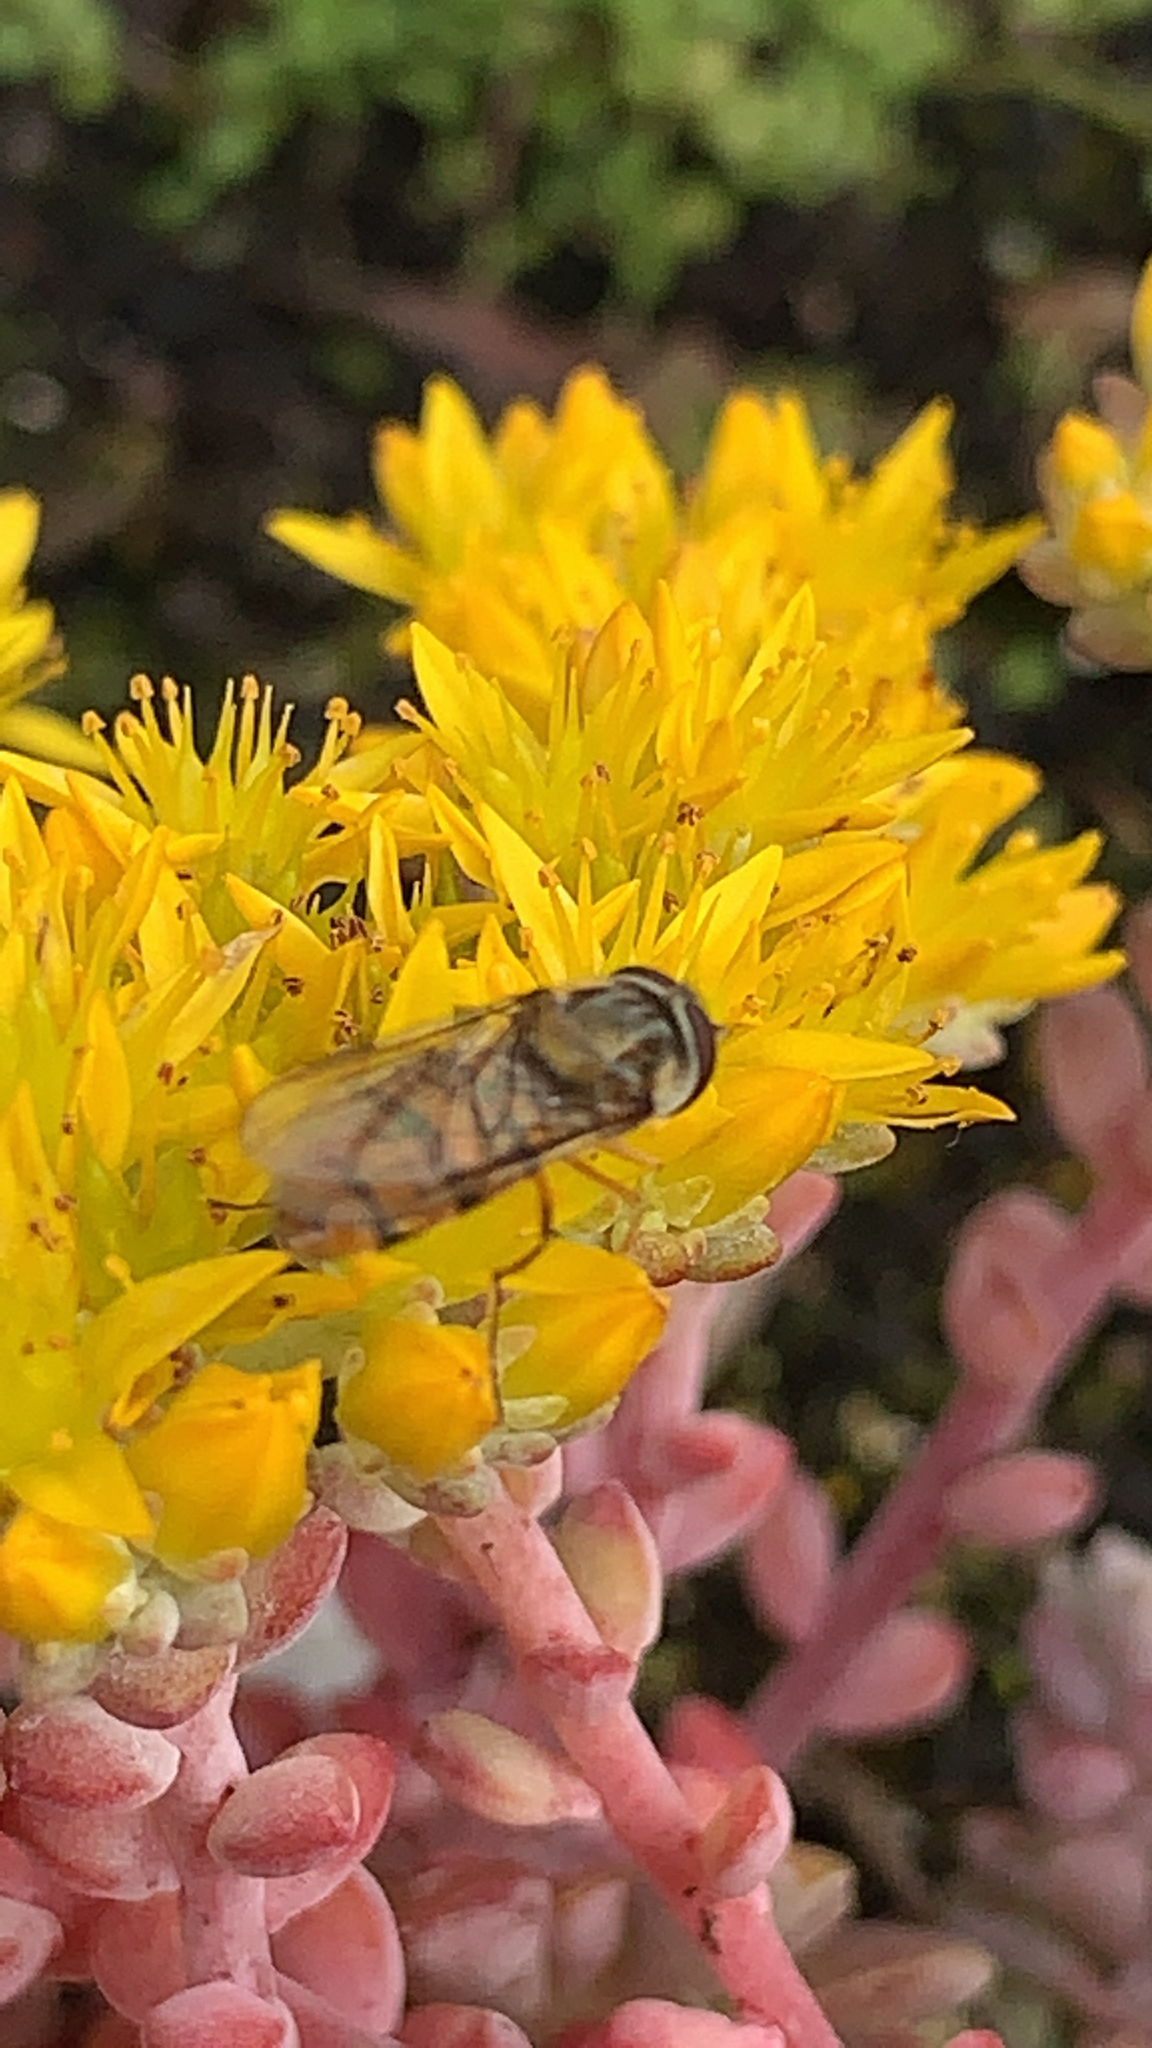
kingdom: Animalia
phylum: Arthropoda
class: Insecta
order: Diptera
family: Syrphidae
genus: Episyrphus
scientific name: Episyrphus balteatus
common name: Marmalade hoverfly
